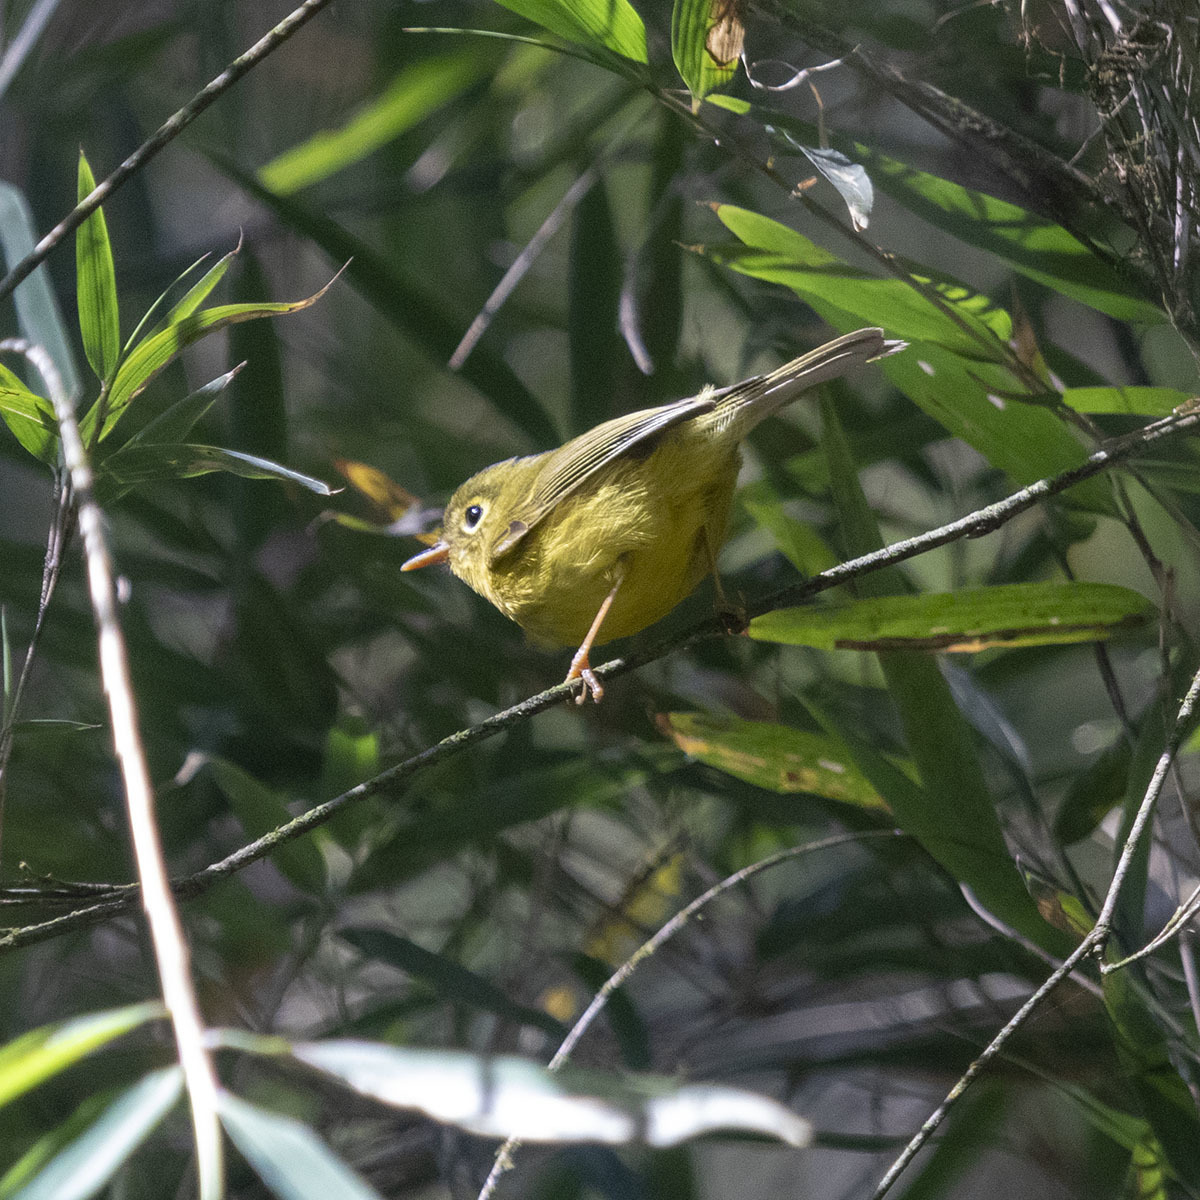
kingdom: Animalia
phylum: Chordata
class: Aves
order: Passeriformes
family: Phylloscopidae
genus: Seicercus
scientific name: Seicercus whistleri
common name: Whistler's warbler
